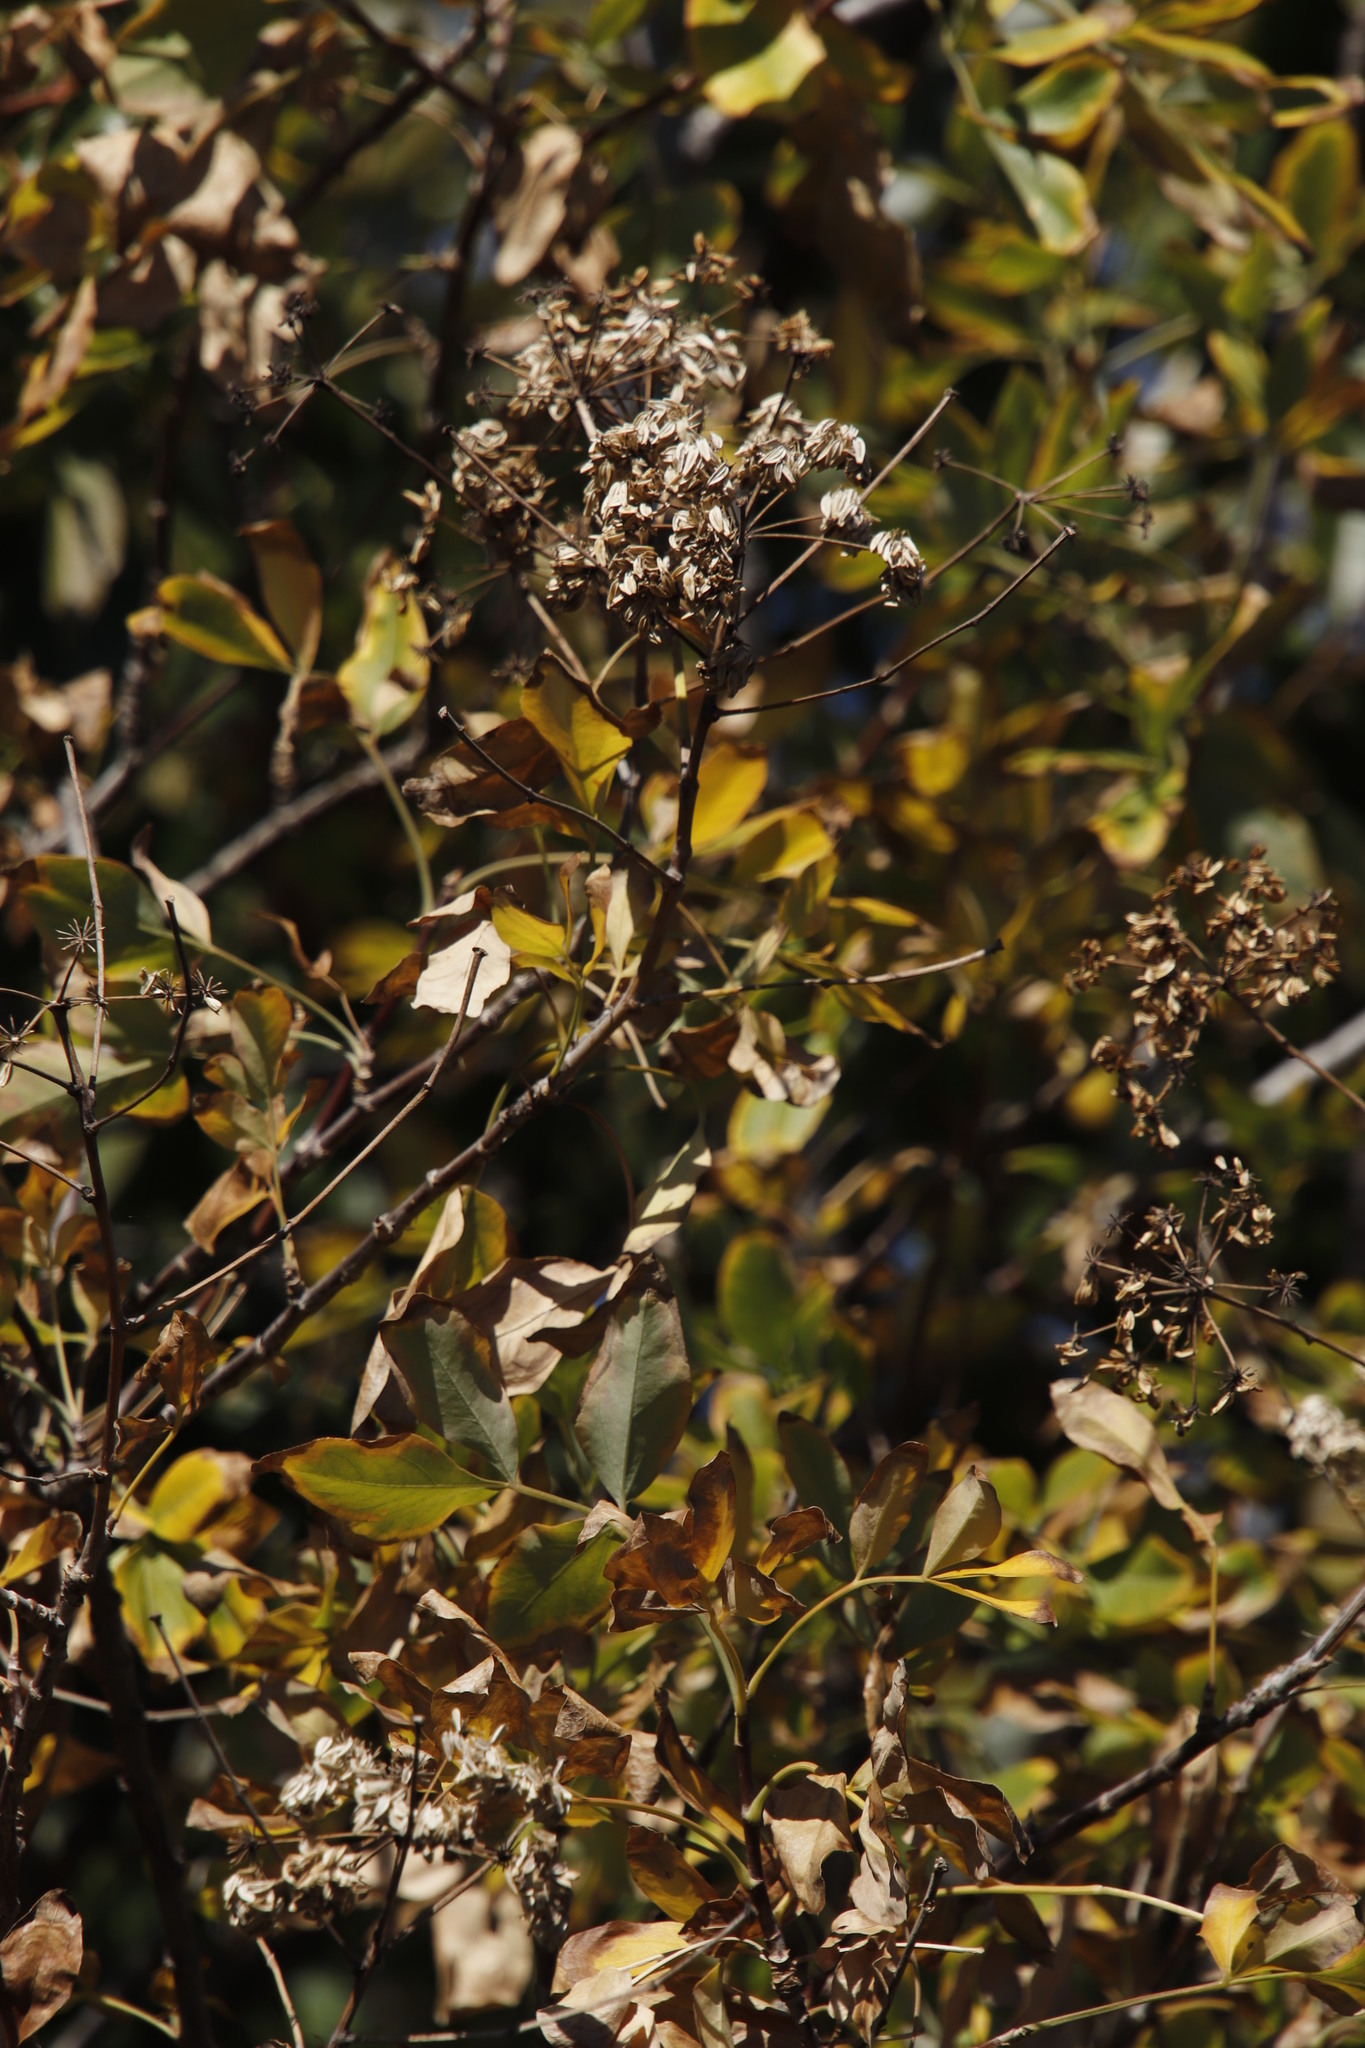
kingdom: Plantae
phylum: Tracheophyta
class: Magnoliopsida
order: Apiales
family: Apiaceae
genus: Heteromorpha
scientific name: Heteromorpha arborescens
